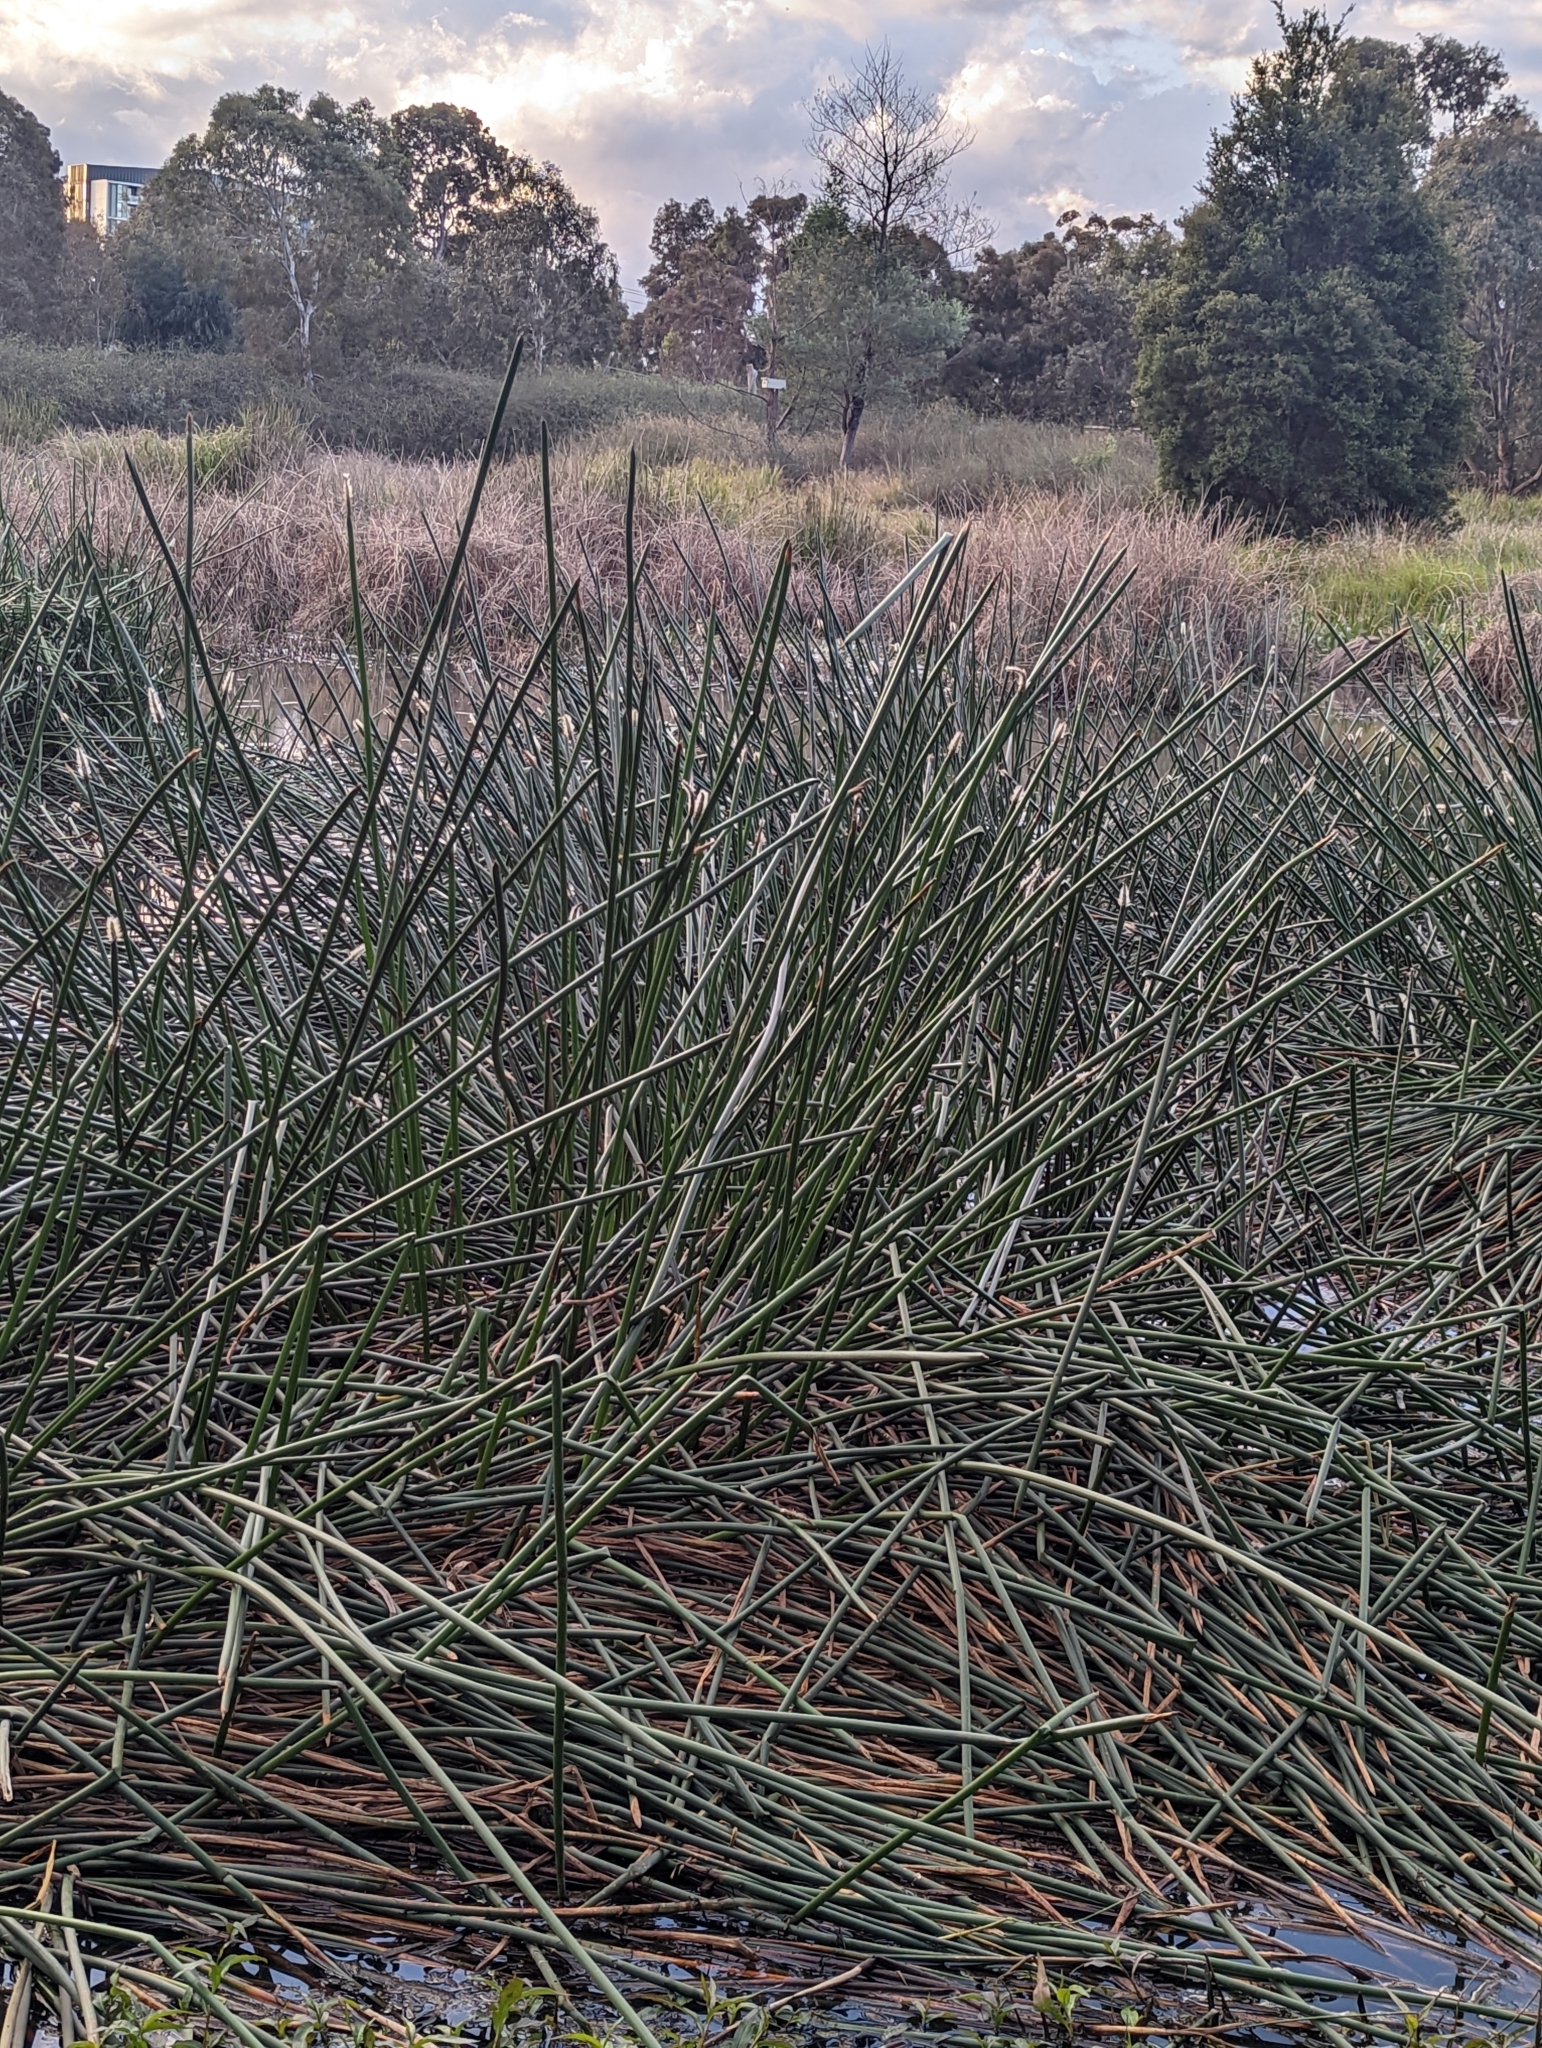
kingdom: Plantae
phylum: Tracheophyta
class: Liliopsida
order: Poales
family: Cyperaceae
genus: Eleocharis
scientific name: Eleocharis sphacelata
